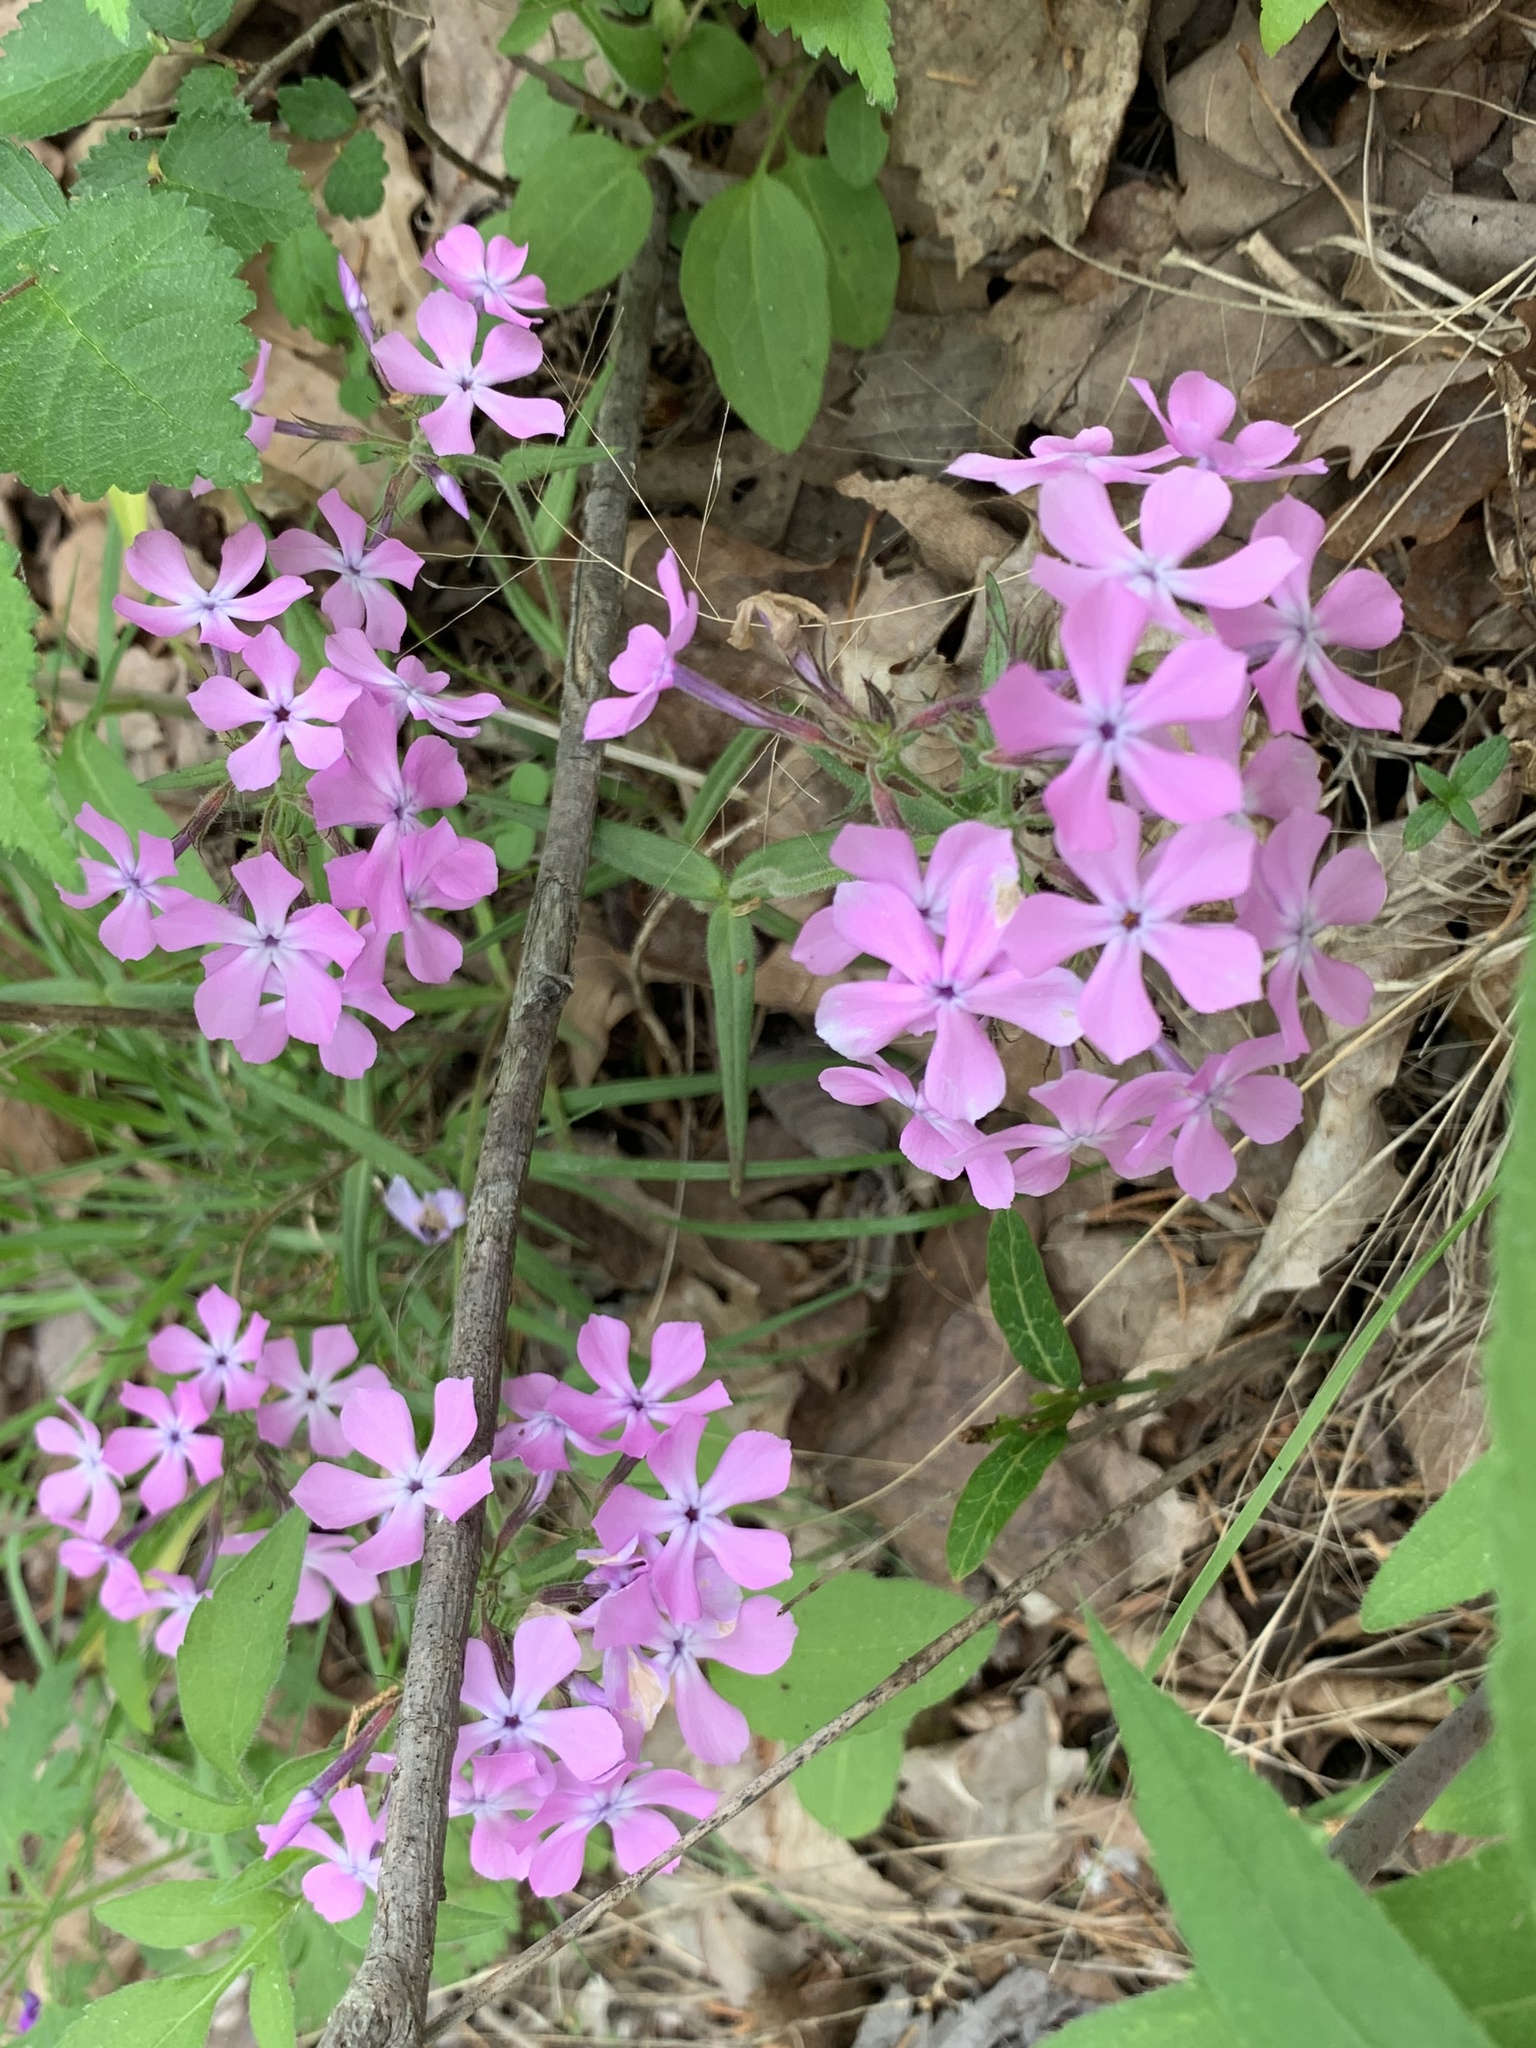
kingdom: Plantae
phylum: Tracheophyta
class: Magnoliopsida
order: Ericales
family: Polemoniaceae
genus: Phlox
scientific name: Phlox pilosa
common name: Prairie phlox
